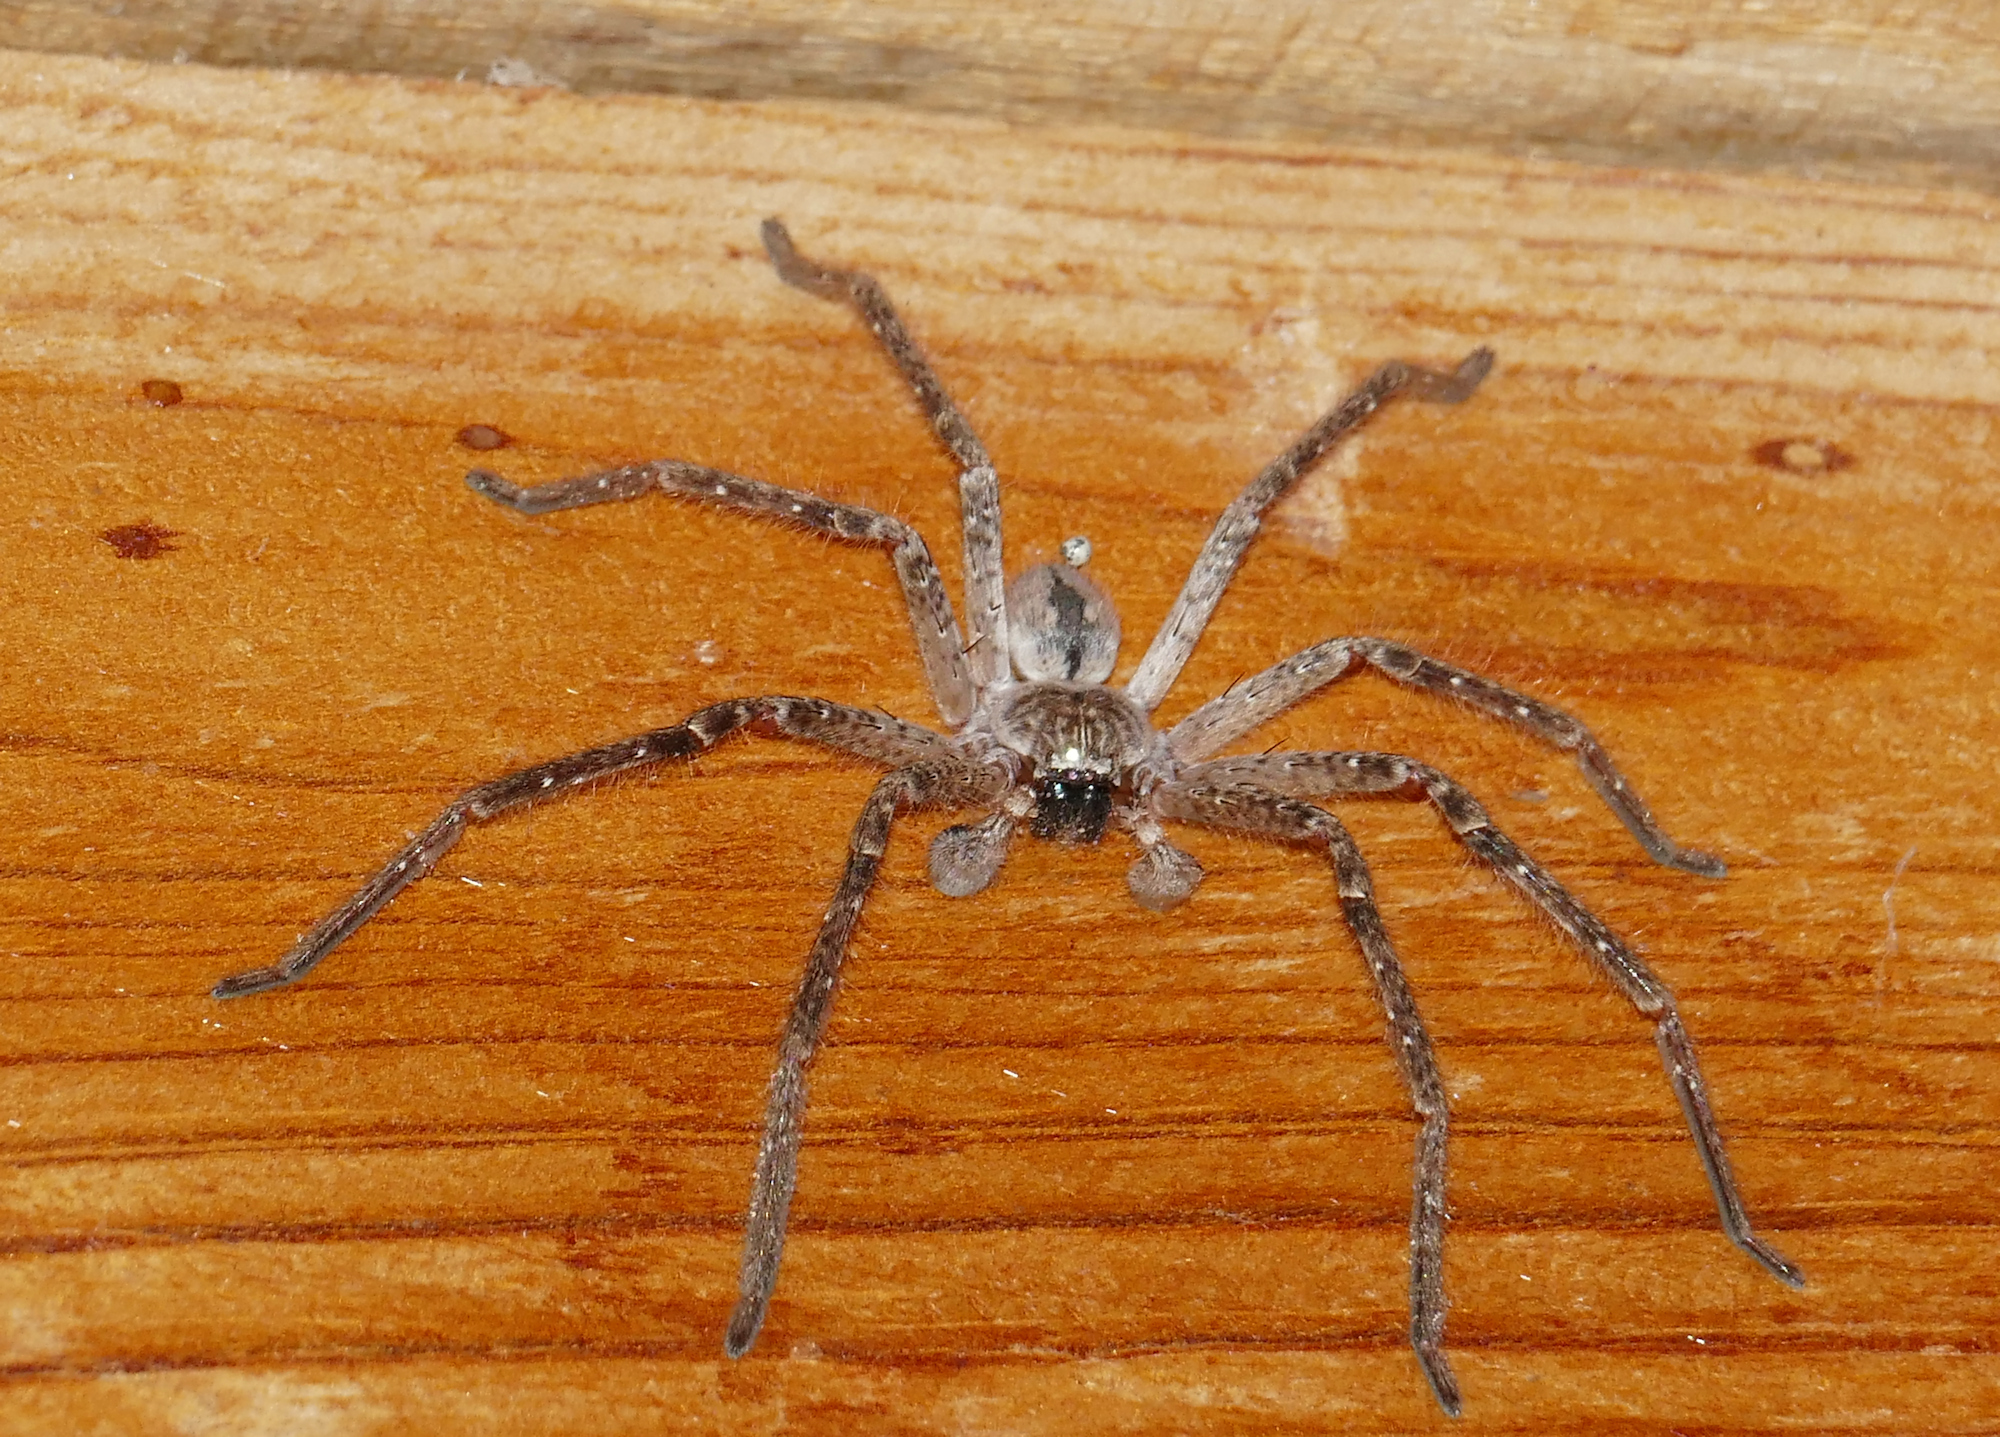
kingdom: Animalia
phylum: Arthropoda
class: Arachnida
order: Araneae
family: Sparassidae
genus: Olios
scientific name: Olios giganteus
